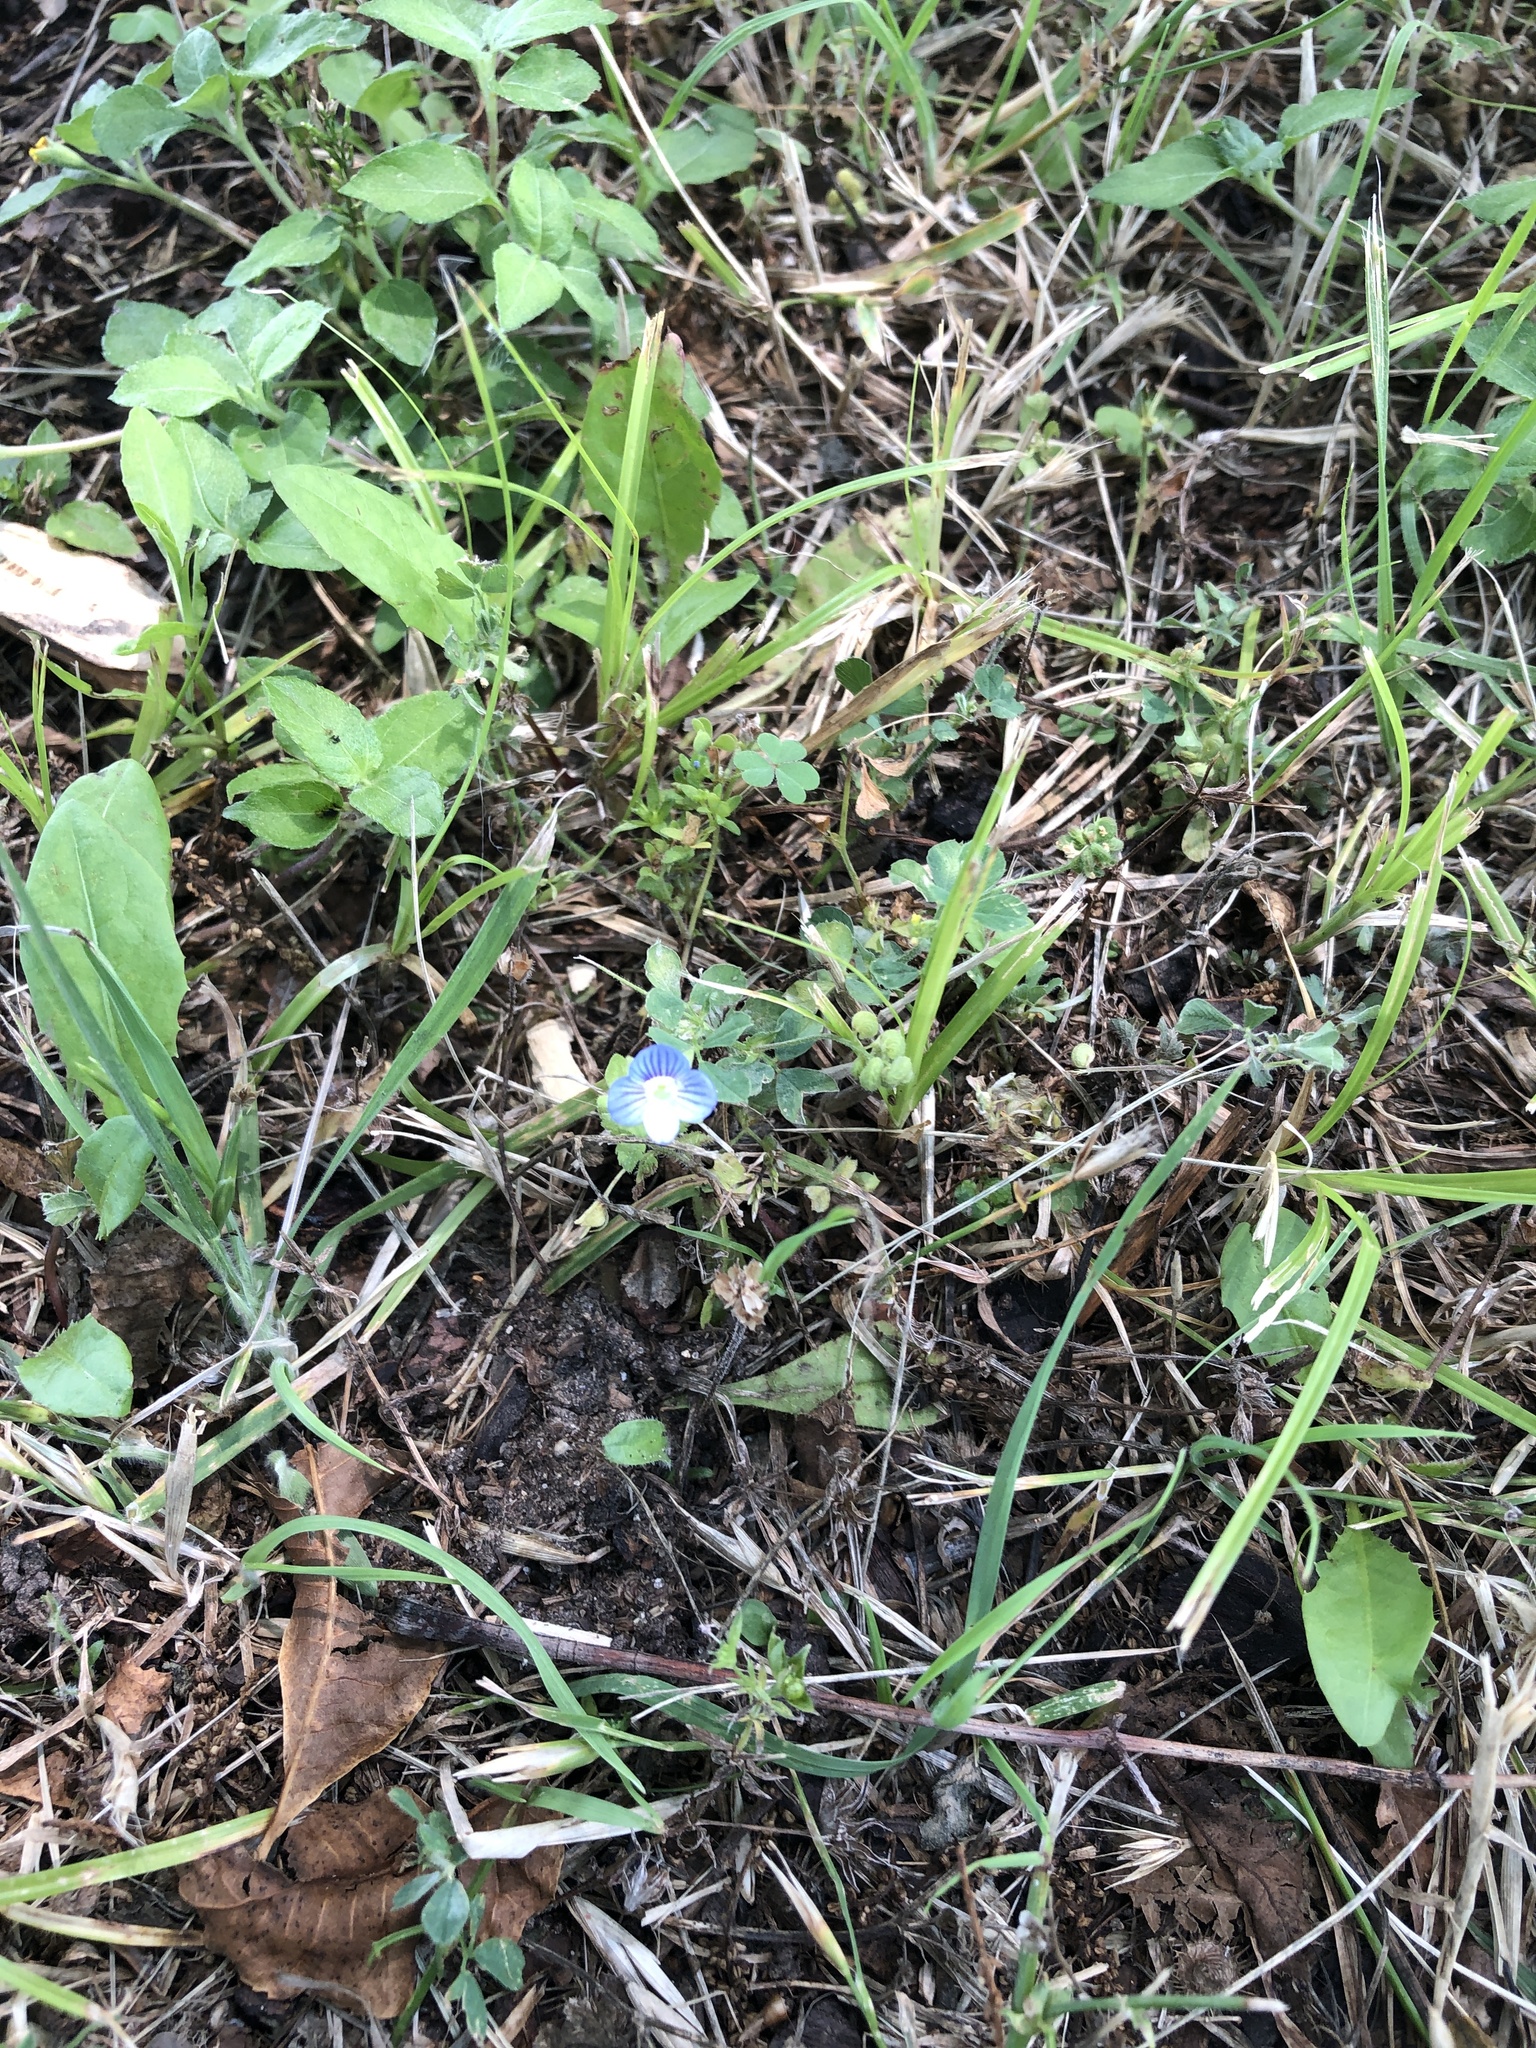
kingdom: Plantae
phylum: Tracheophyta
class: Magnoliopsida
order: Lamiales
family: Plantaginaceae
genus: Veronica
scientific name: Veronica persica
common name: Common field-speedwell
